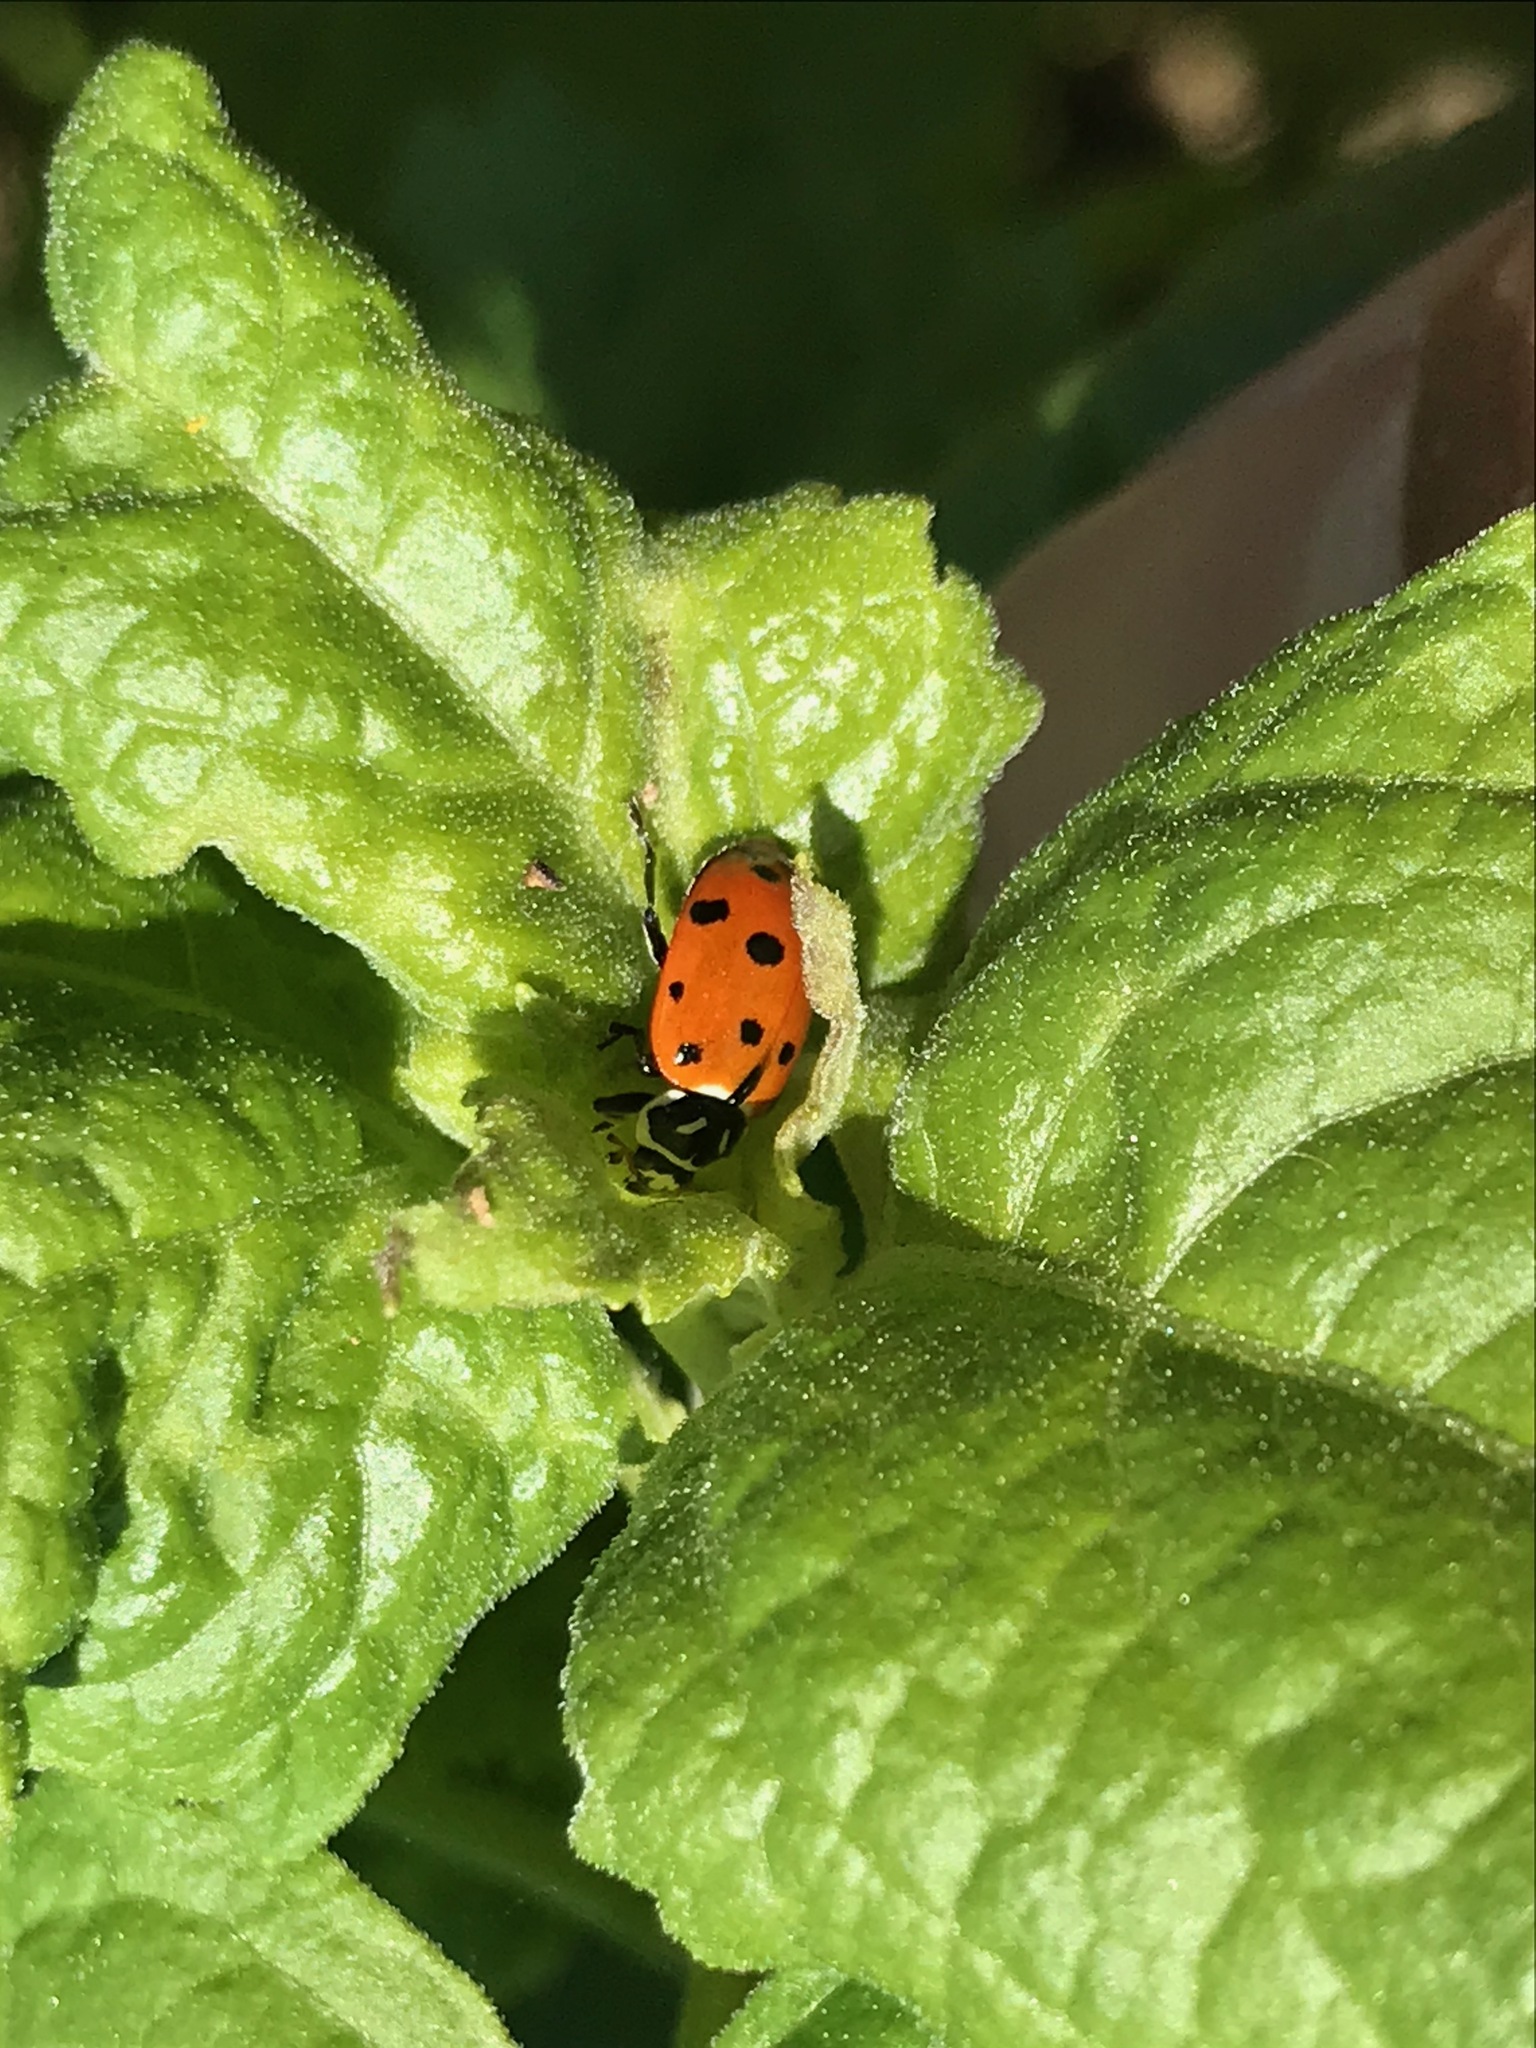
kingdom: Animalia
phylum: Arthropoda
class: Insecta
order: Coleoptera
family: Coccinellidae
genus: Hippodamia
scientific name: Hippodamia convergens
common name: Convergent lady beetle
